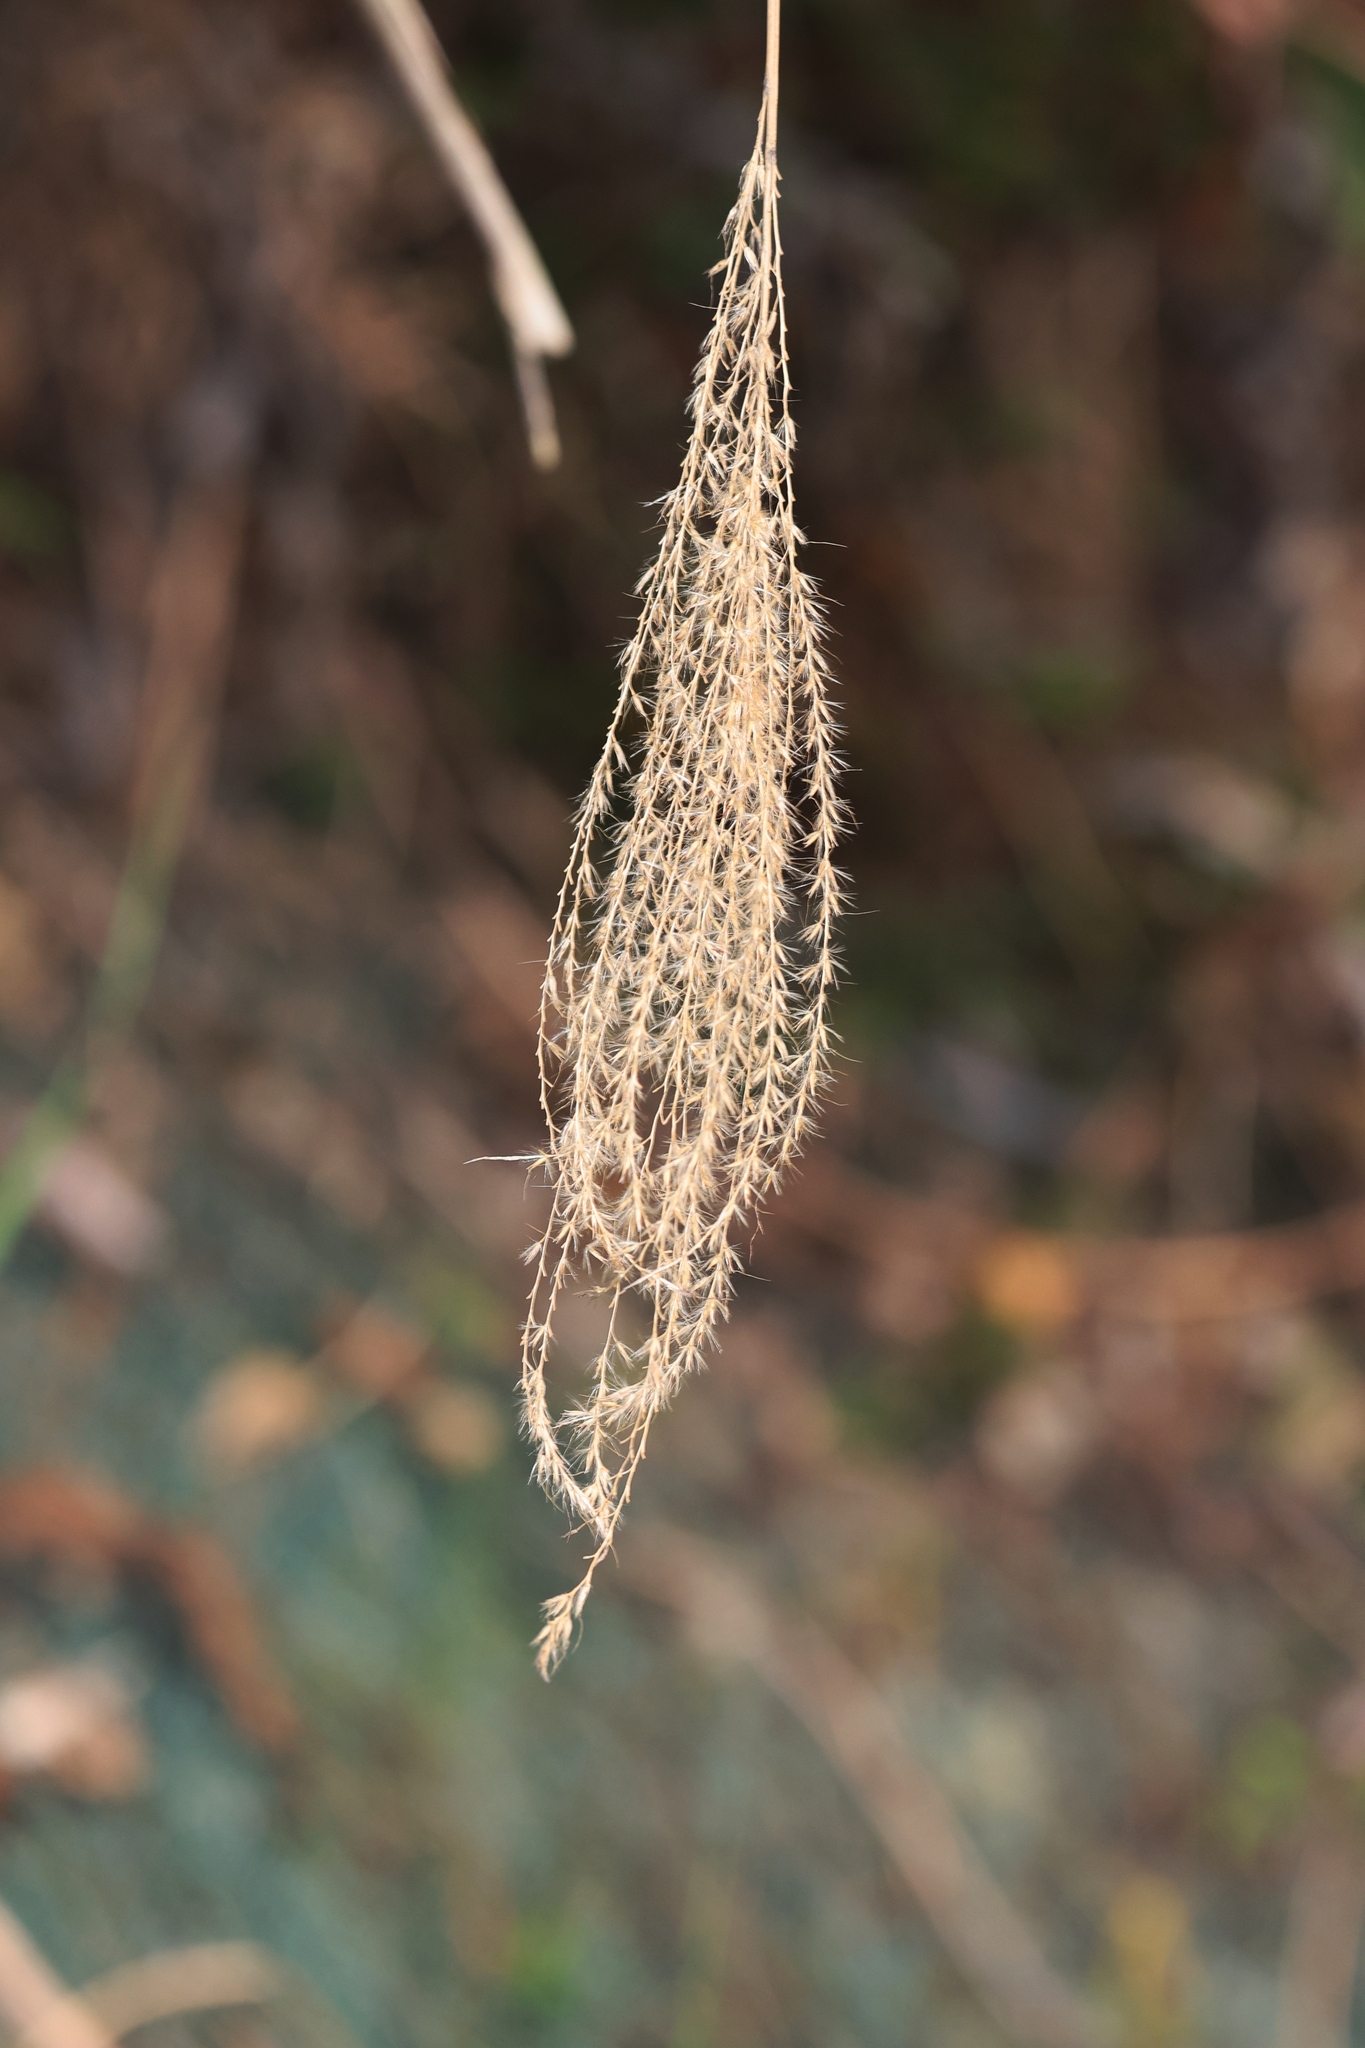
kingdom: Plantae
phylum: Tracheophyta
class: Liliopsida
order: Poales
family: Poaceae
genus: Miscanthus
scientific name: Miscanthus floridulus
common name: Pacific island silvergrass
